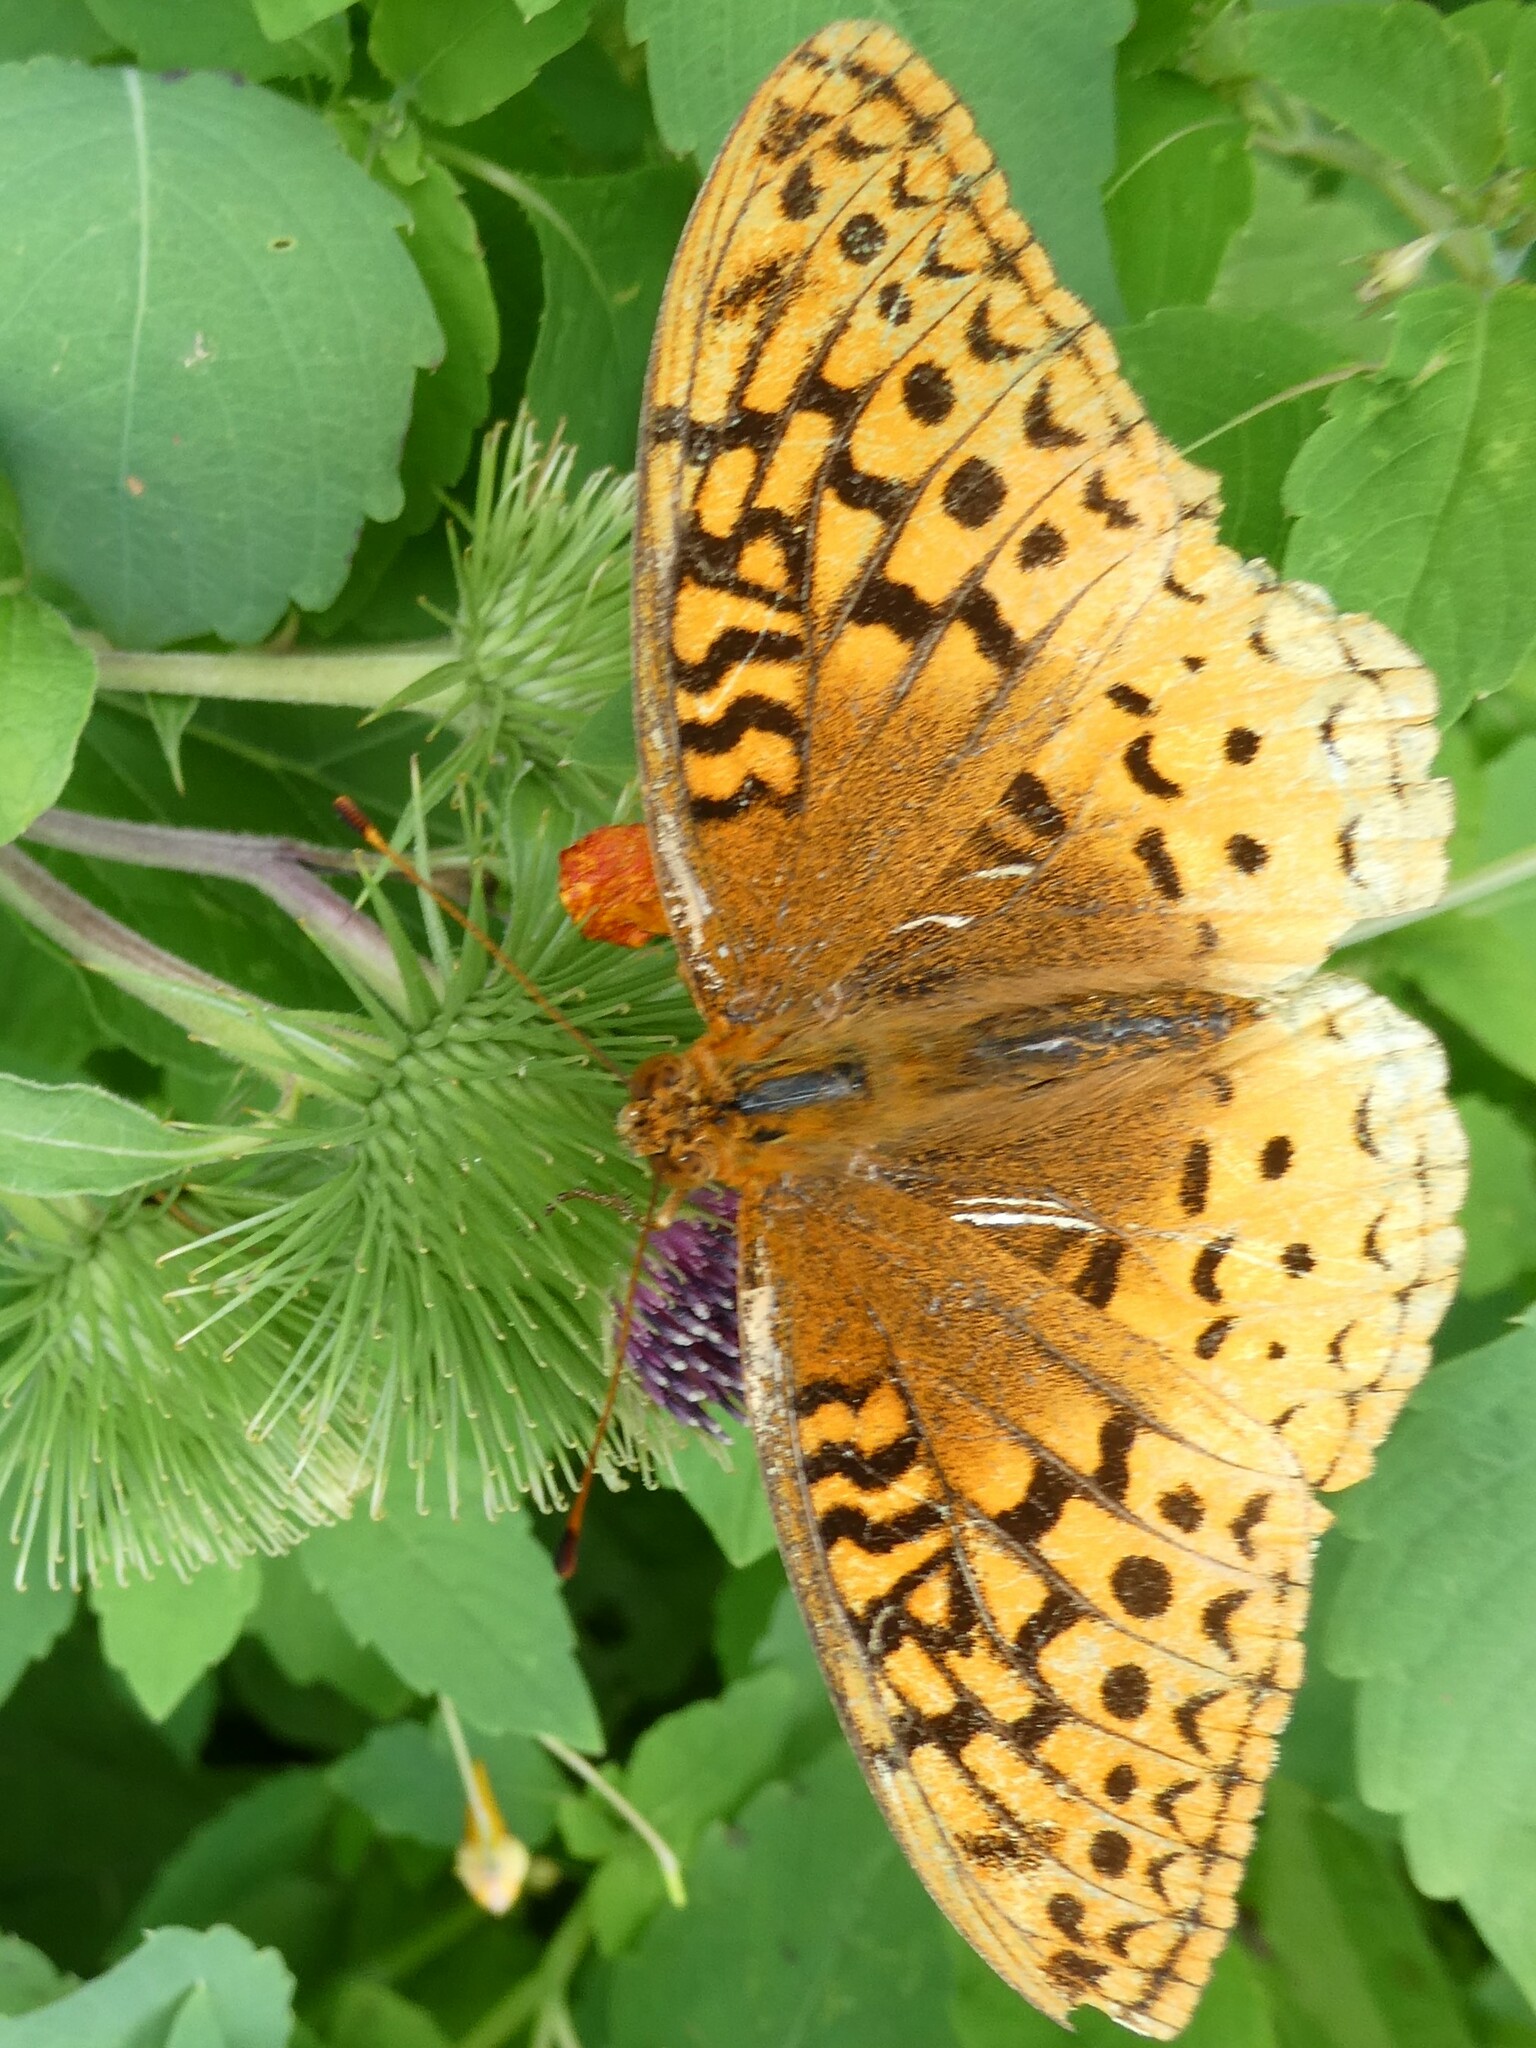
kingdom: Animalia
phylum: Arthropoda
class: Insecta
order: Lepidoptera
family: Nymphalidae
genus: Speyeria
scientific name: Speyeria cybele
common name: Great spangled fritillary
